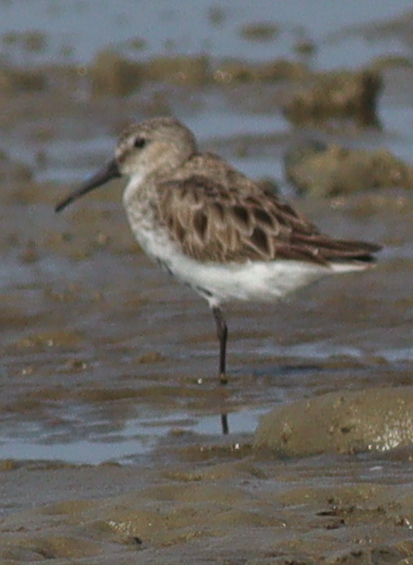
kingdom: Animalia
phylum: Chordata
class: Aves
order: Charadriiformes
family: Scolopacidae
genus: Calidris
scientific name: Calidris alpina
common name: Dunlin
